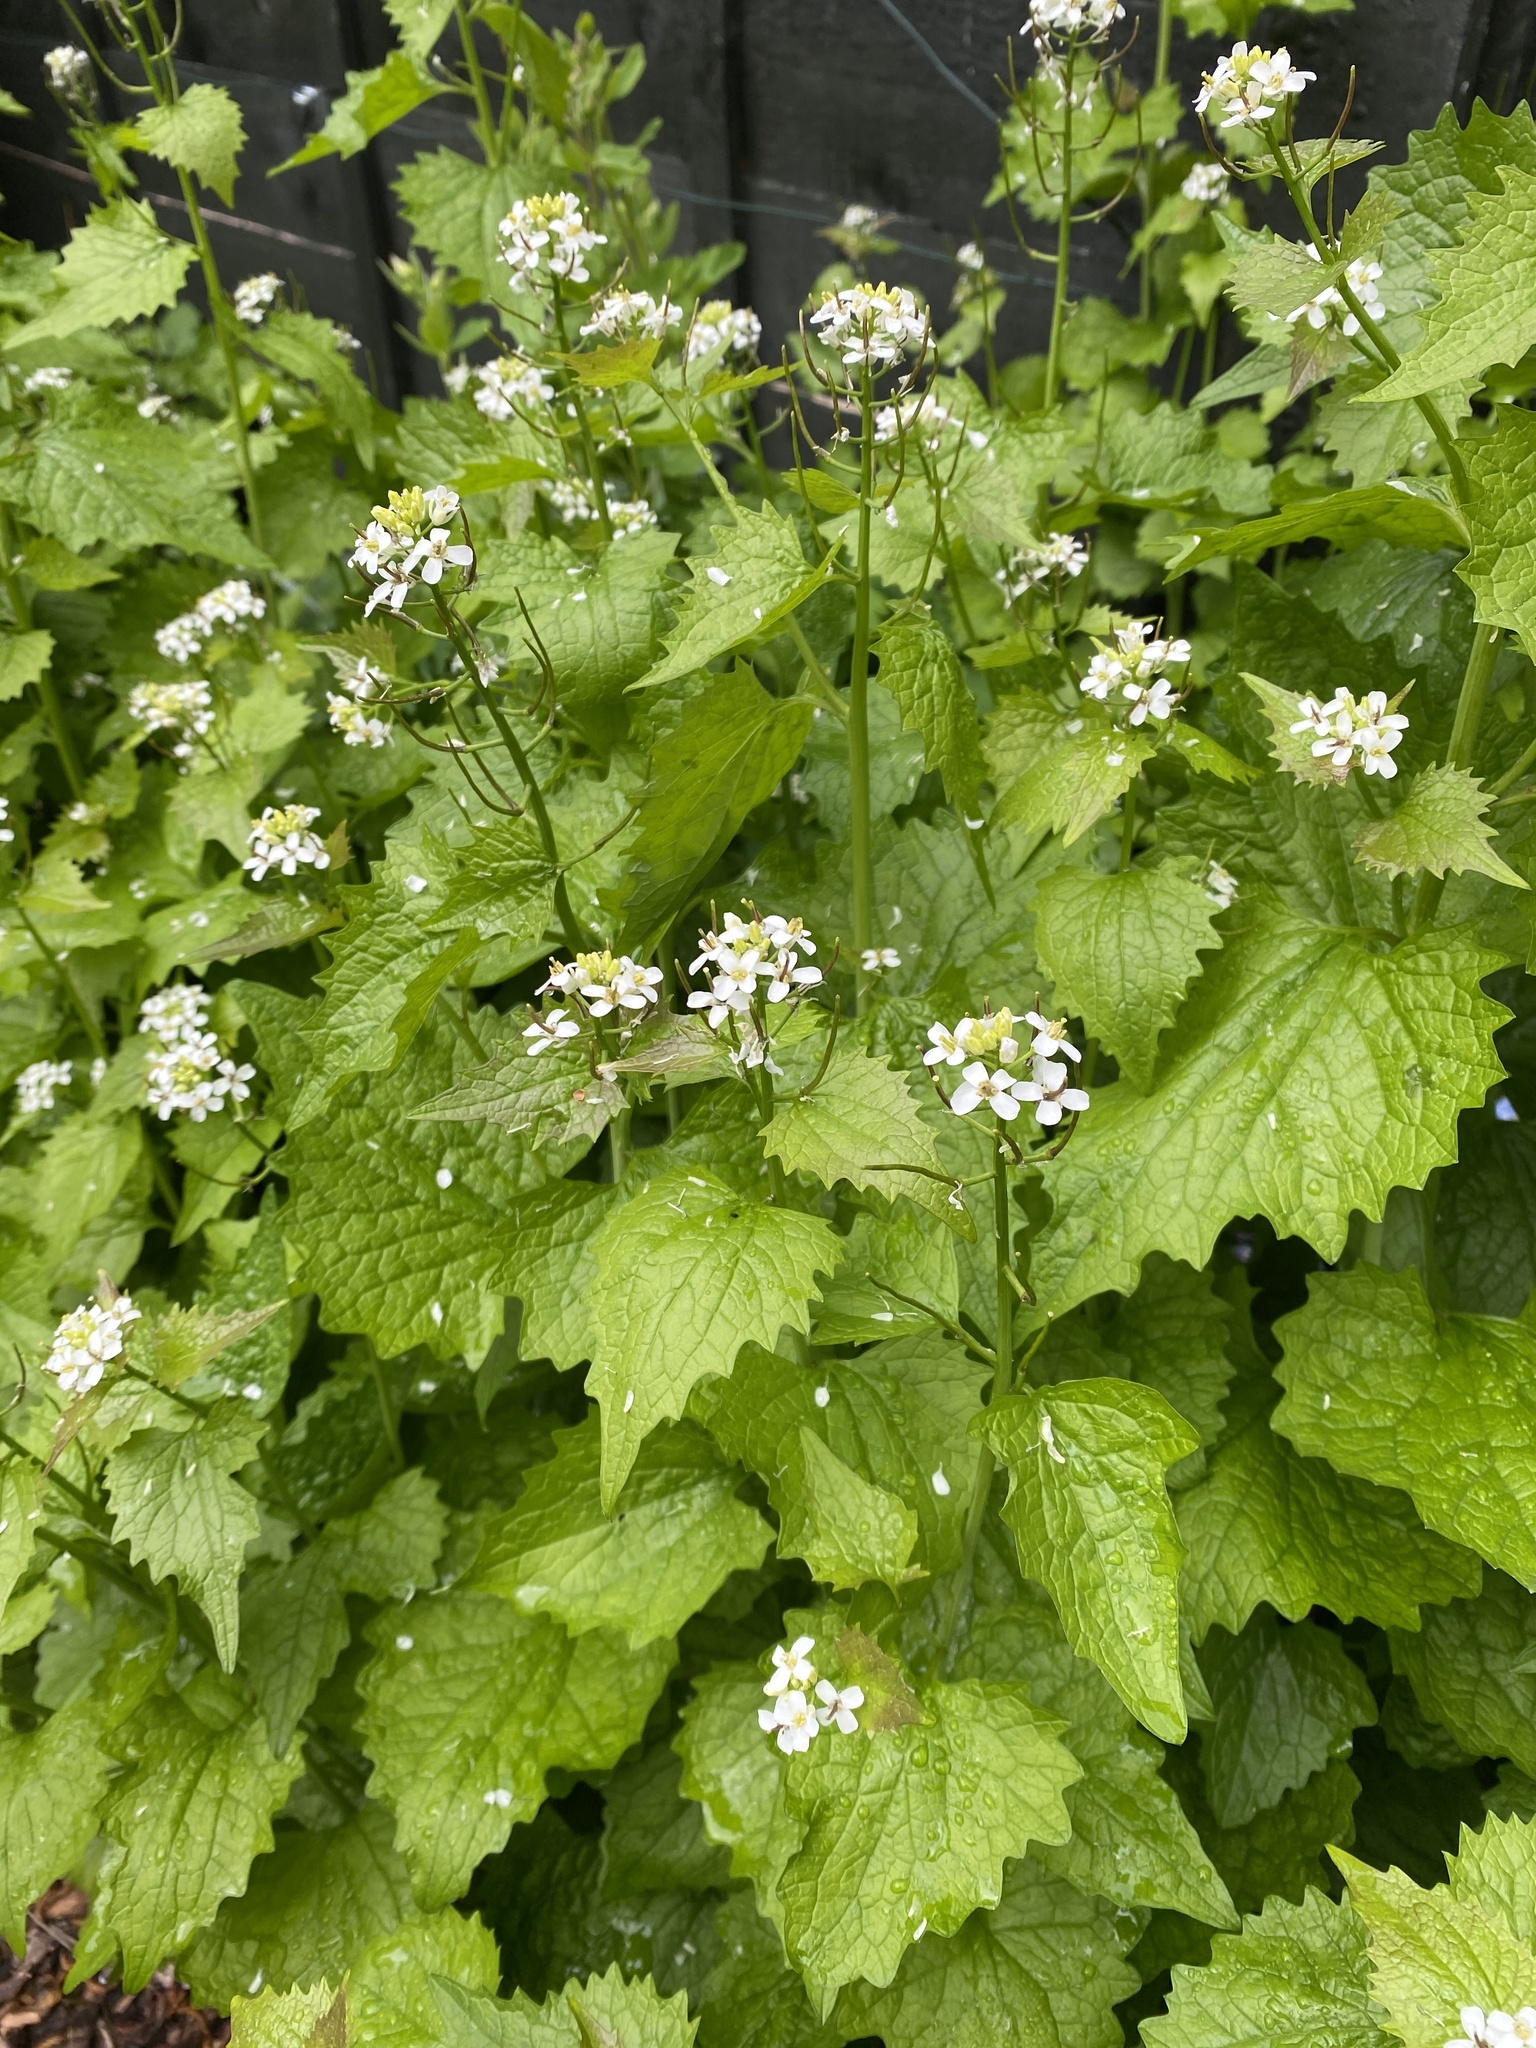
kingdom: Plantae
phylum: Tracheophyta
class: Magnoliopsida
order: Brassicales
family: Brassicaceae
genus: Alliaria
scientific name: Alliaria petiolata
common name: Garlic mustard
